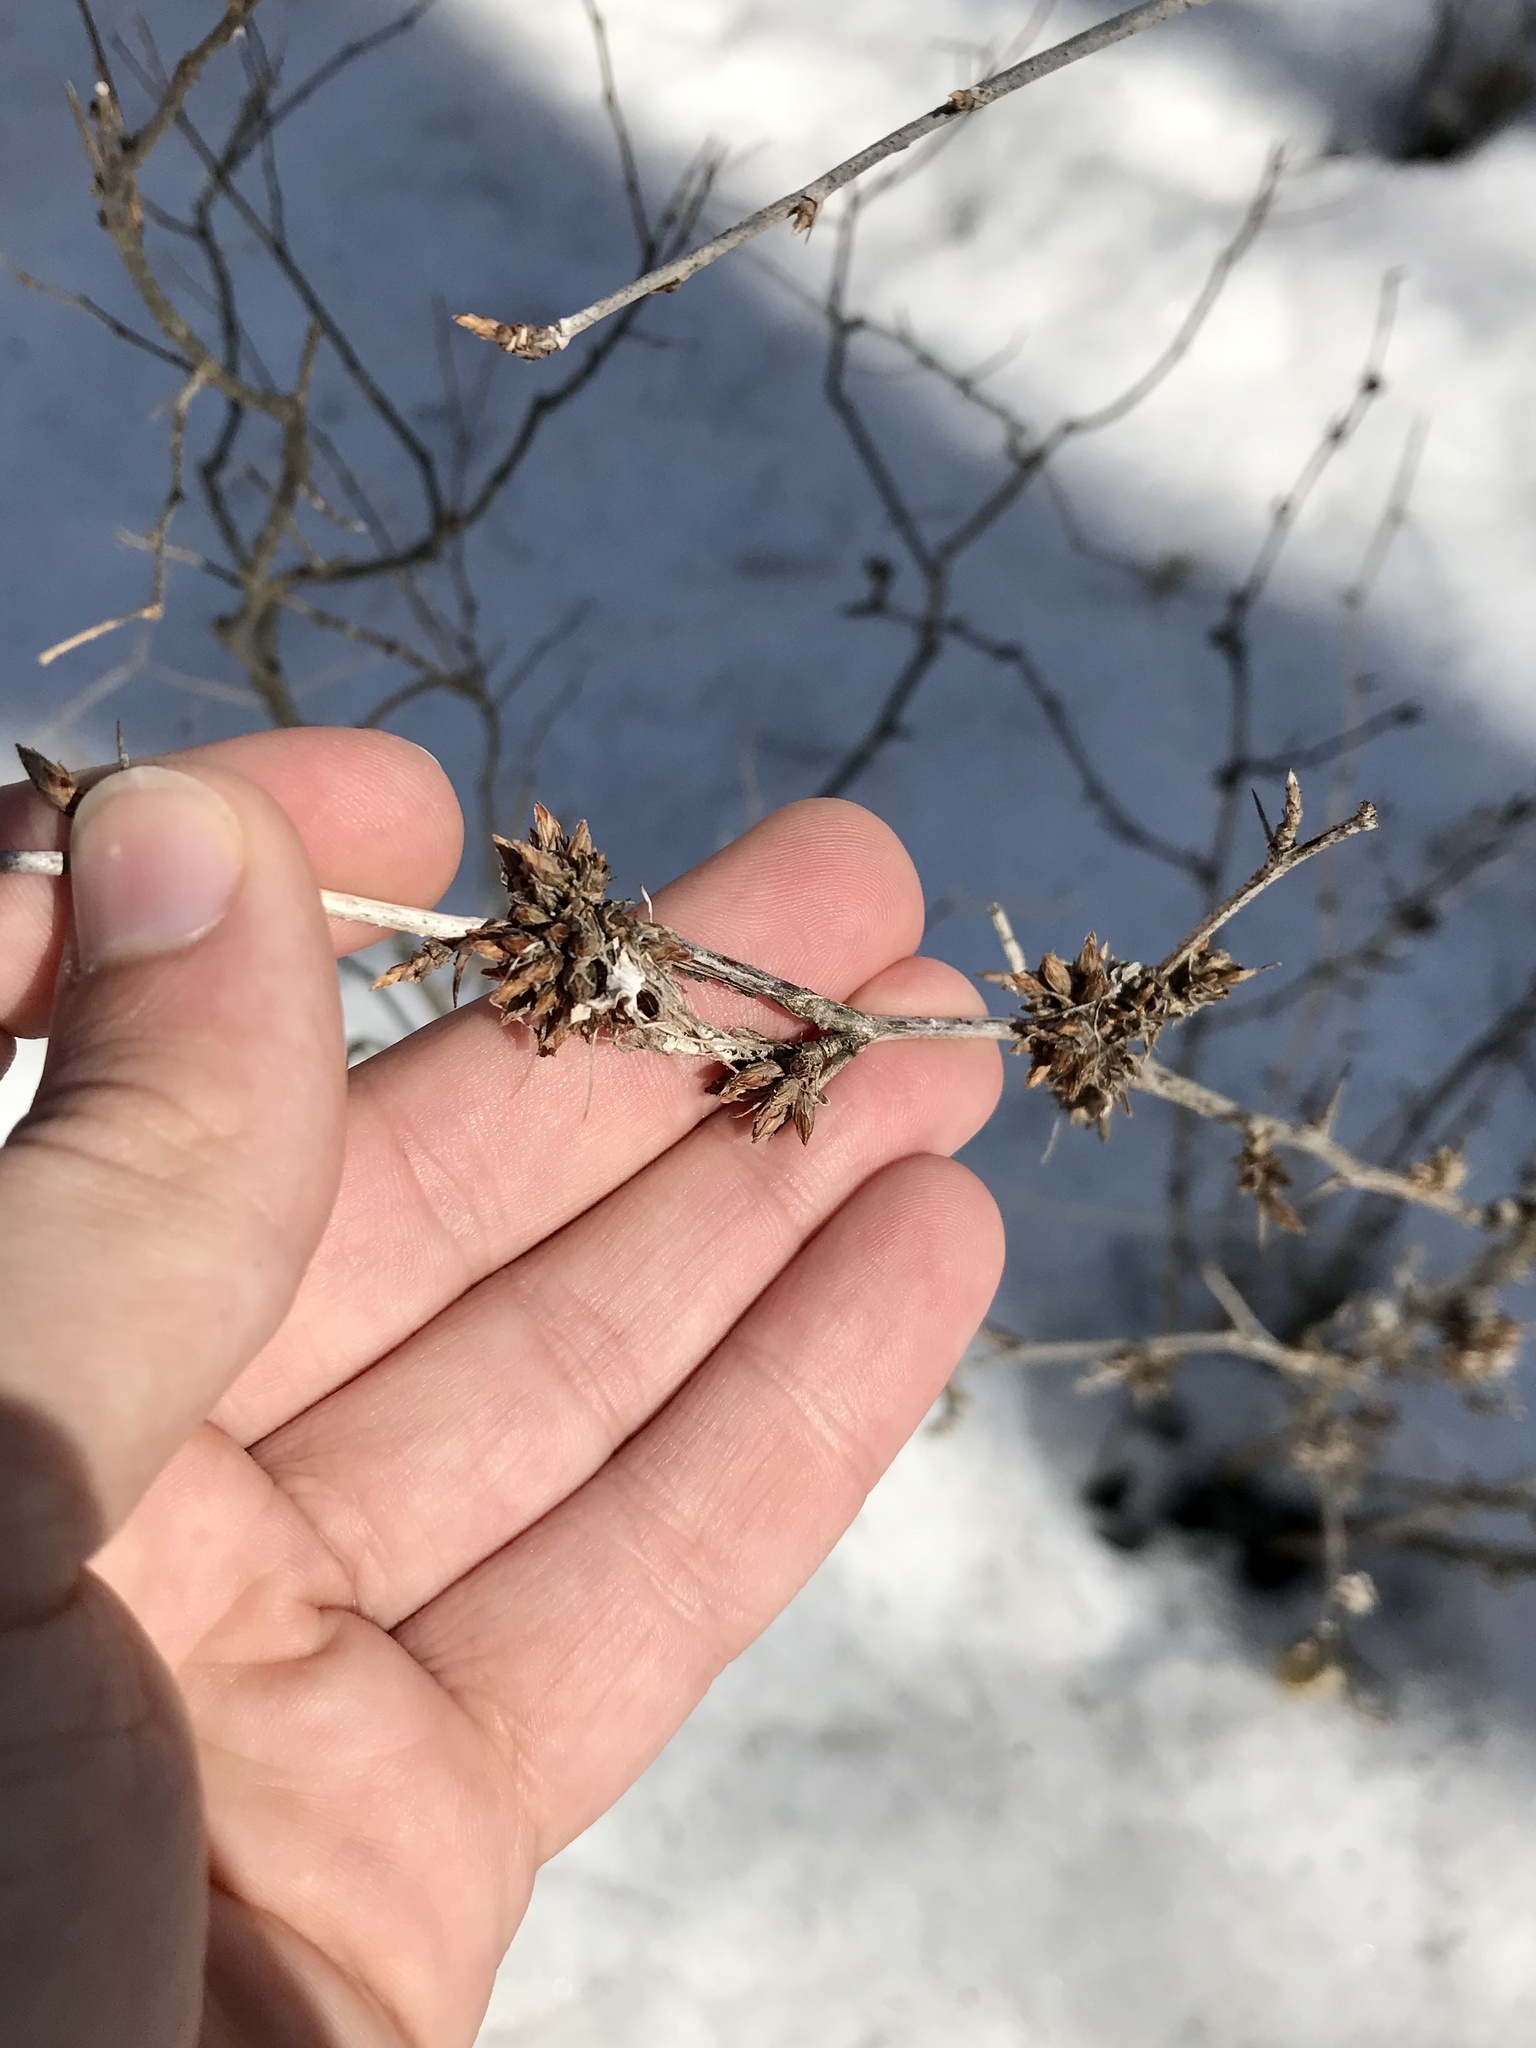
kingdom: Animalia
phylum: Arthropoda
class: Insecta
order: Diptera
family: Cecidomyiidae
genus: Rhopalomyia
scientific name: Rhopalomyia grossulariae
